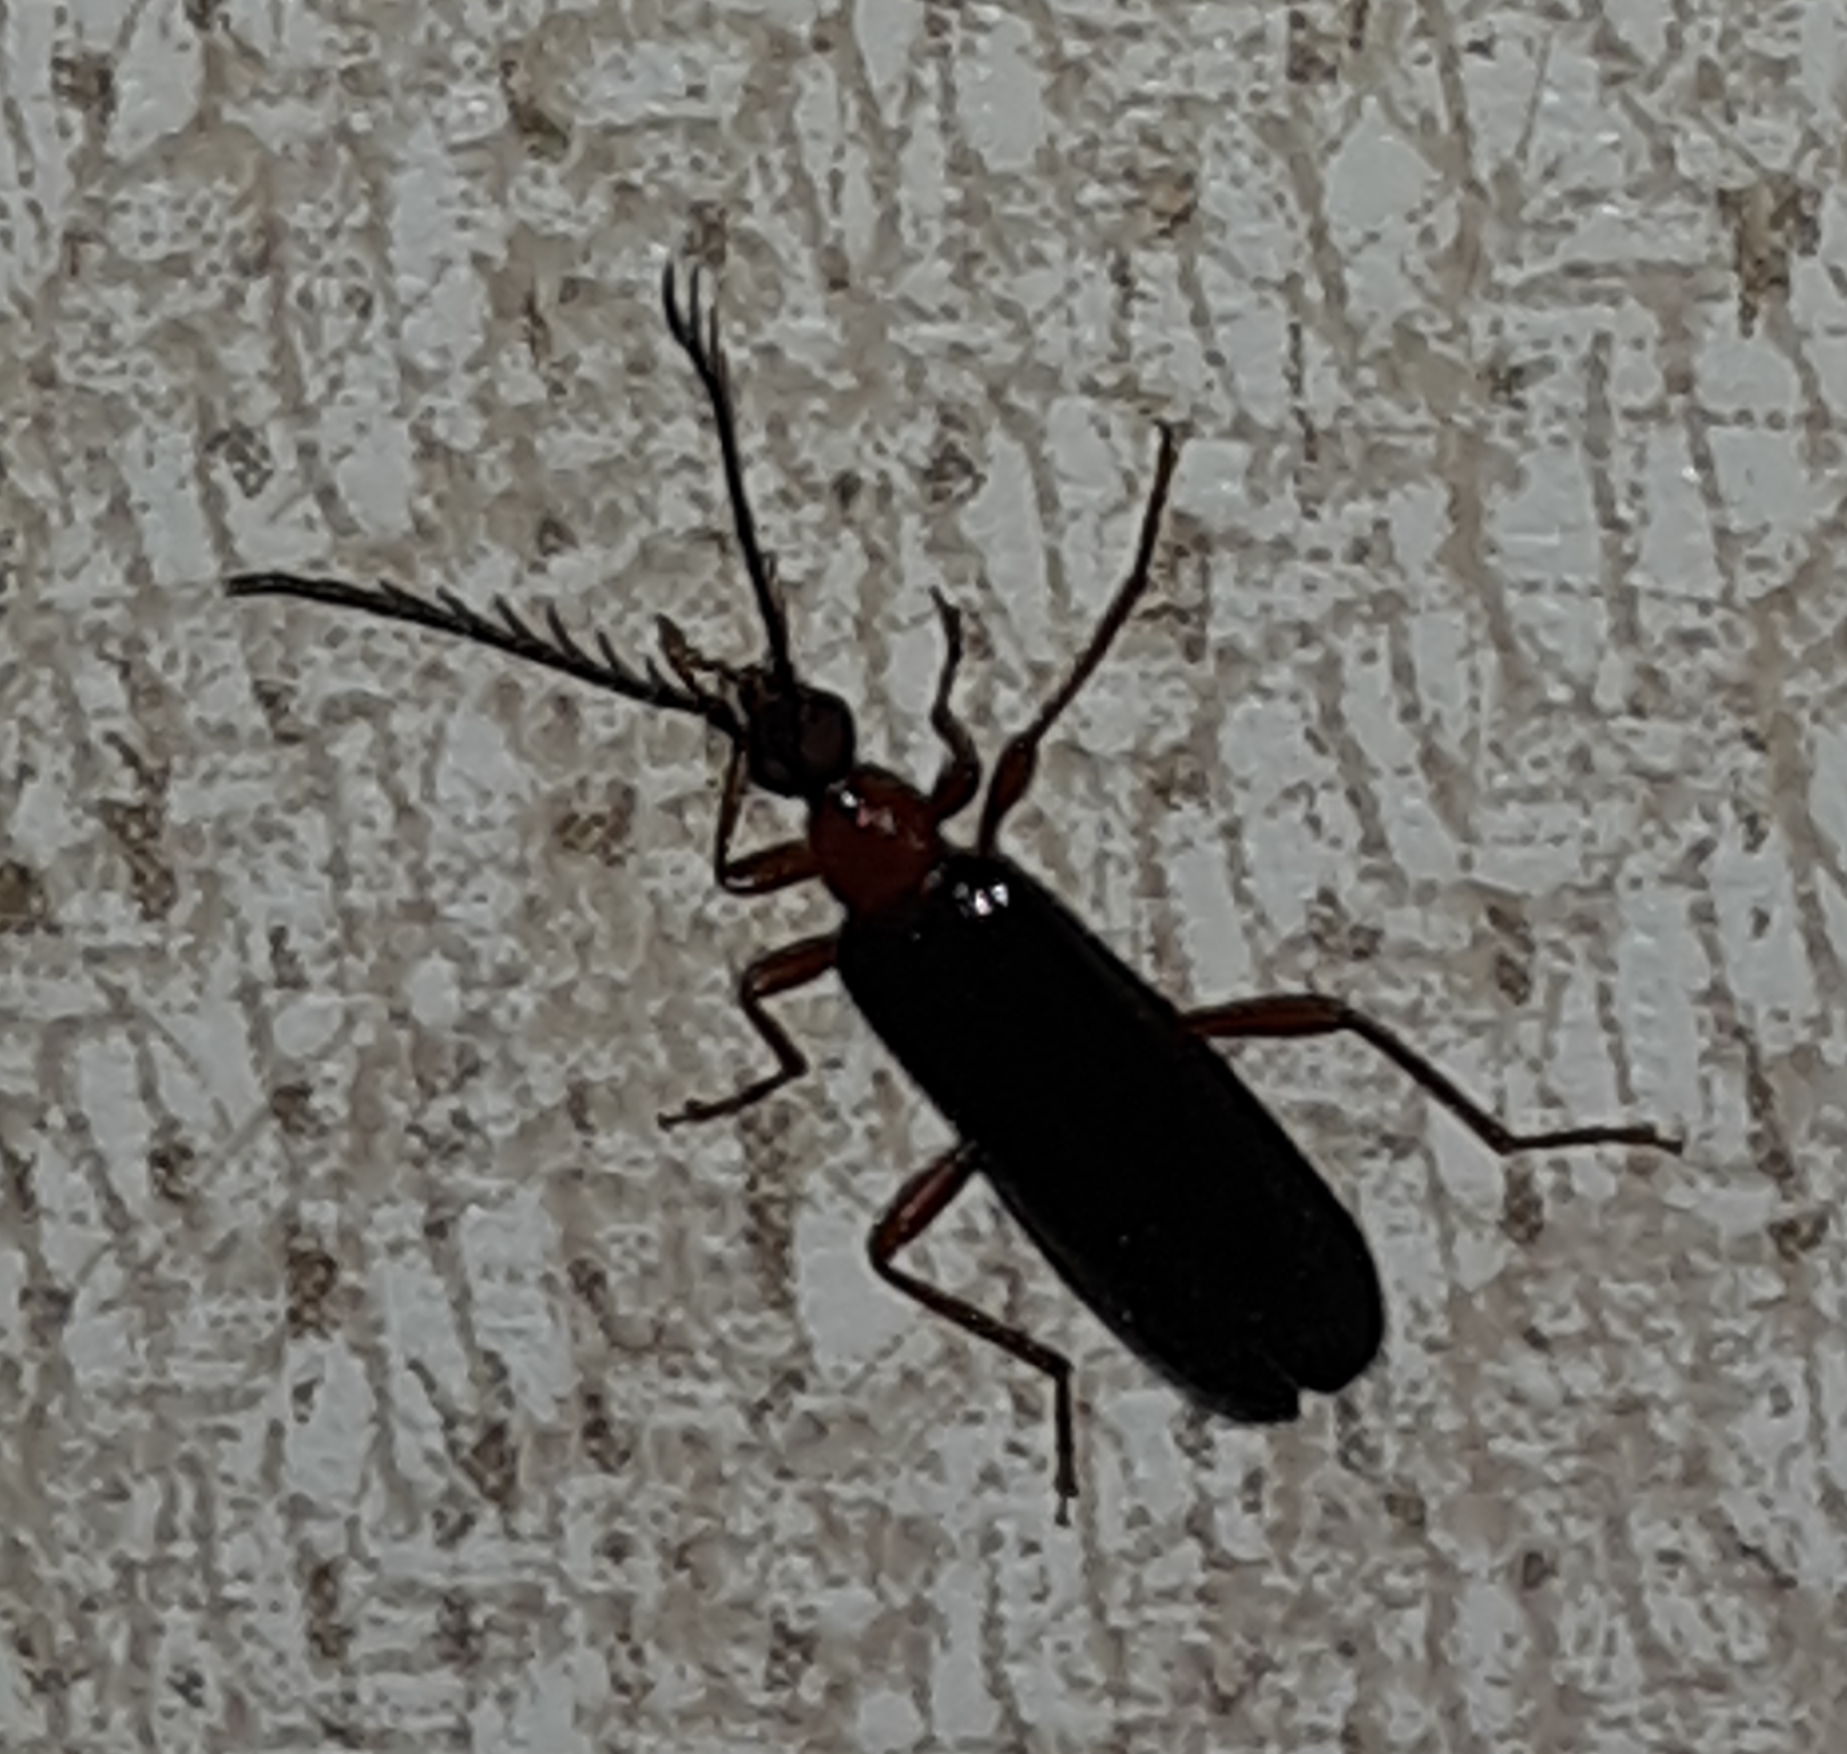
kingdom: Animalia
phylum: Arthropoda
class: Insecta
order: Coleoptera
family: Pyrochroidae
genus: Dendroides
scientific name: Dendroides canadensis
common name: Canada fire-colored beetle
